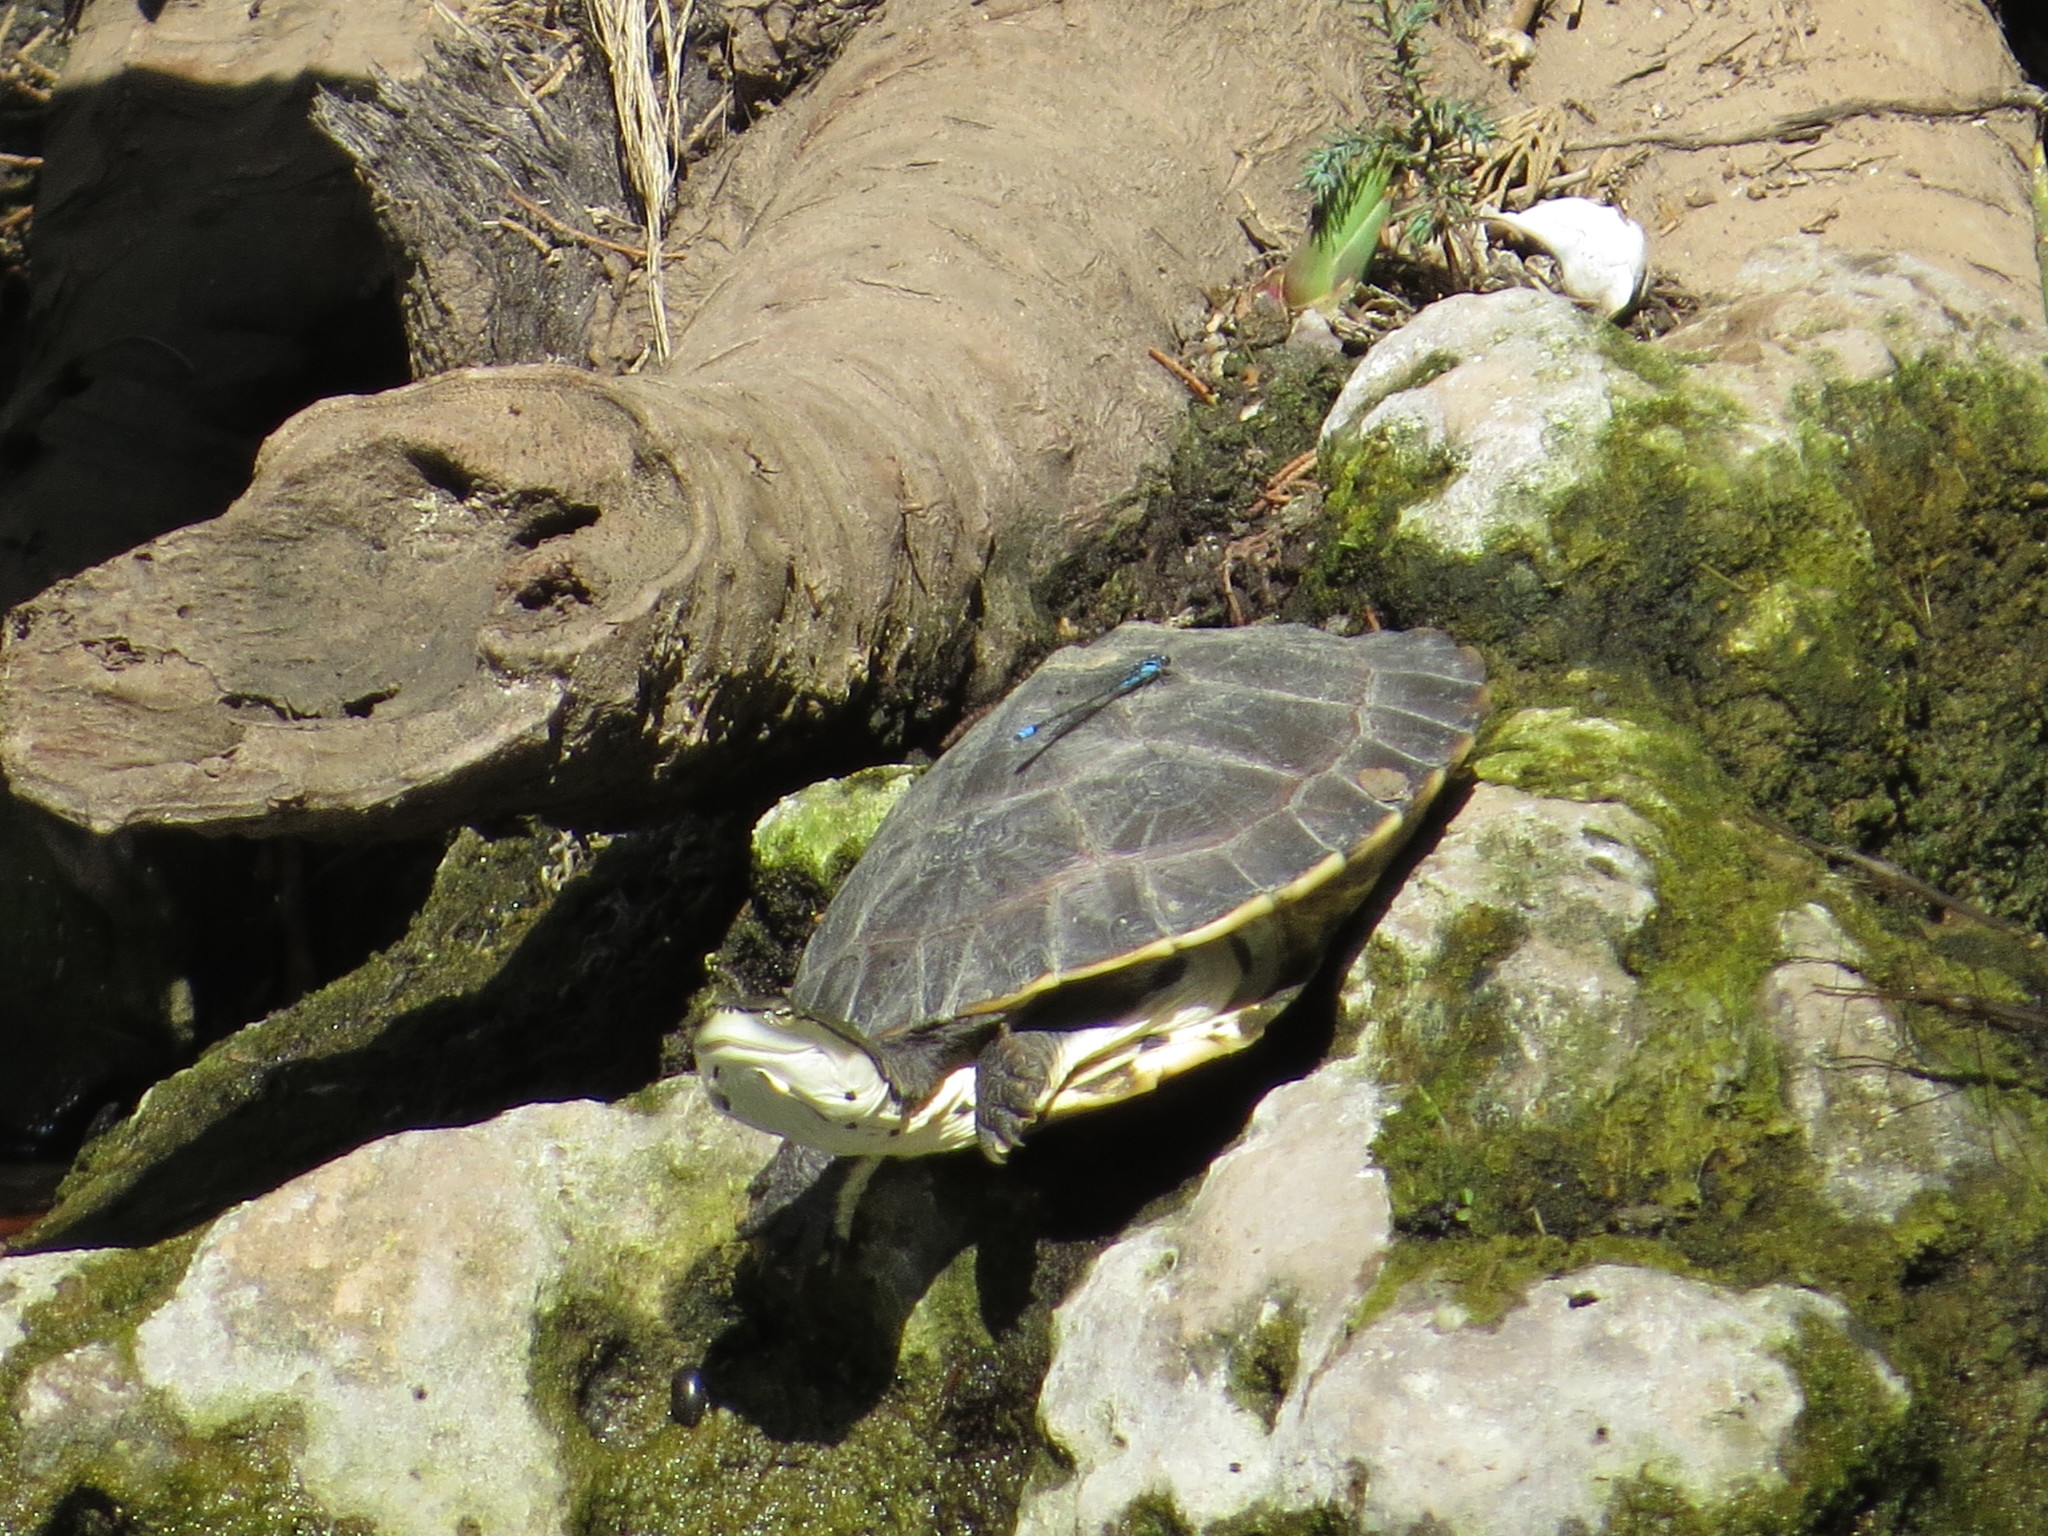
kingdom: Animalia
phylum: Arthropoda
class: Insecta
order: Odonata
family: Coenagrionidae
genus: Acanthagrion
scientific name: Acanthagrion lancea
